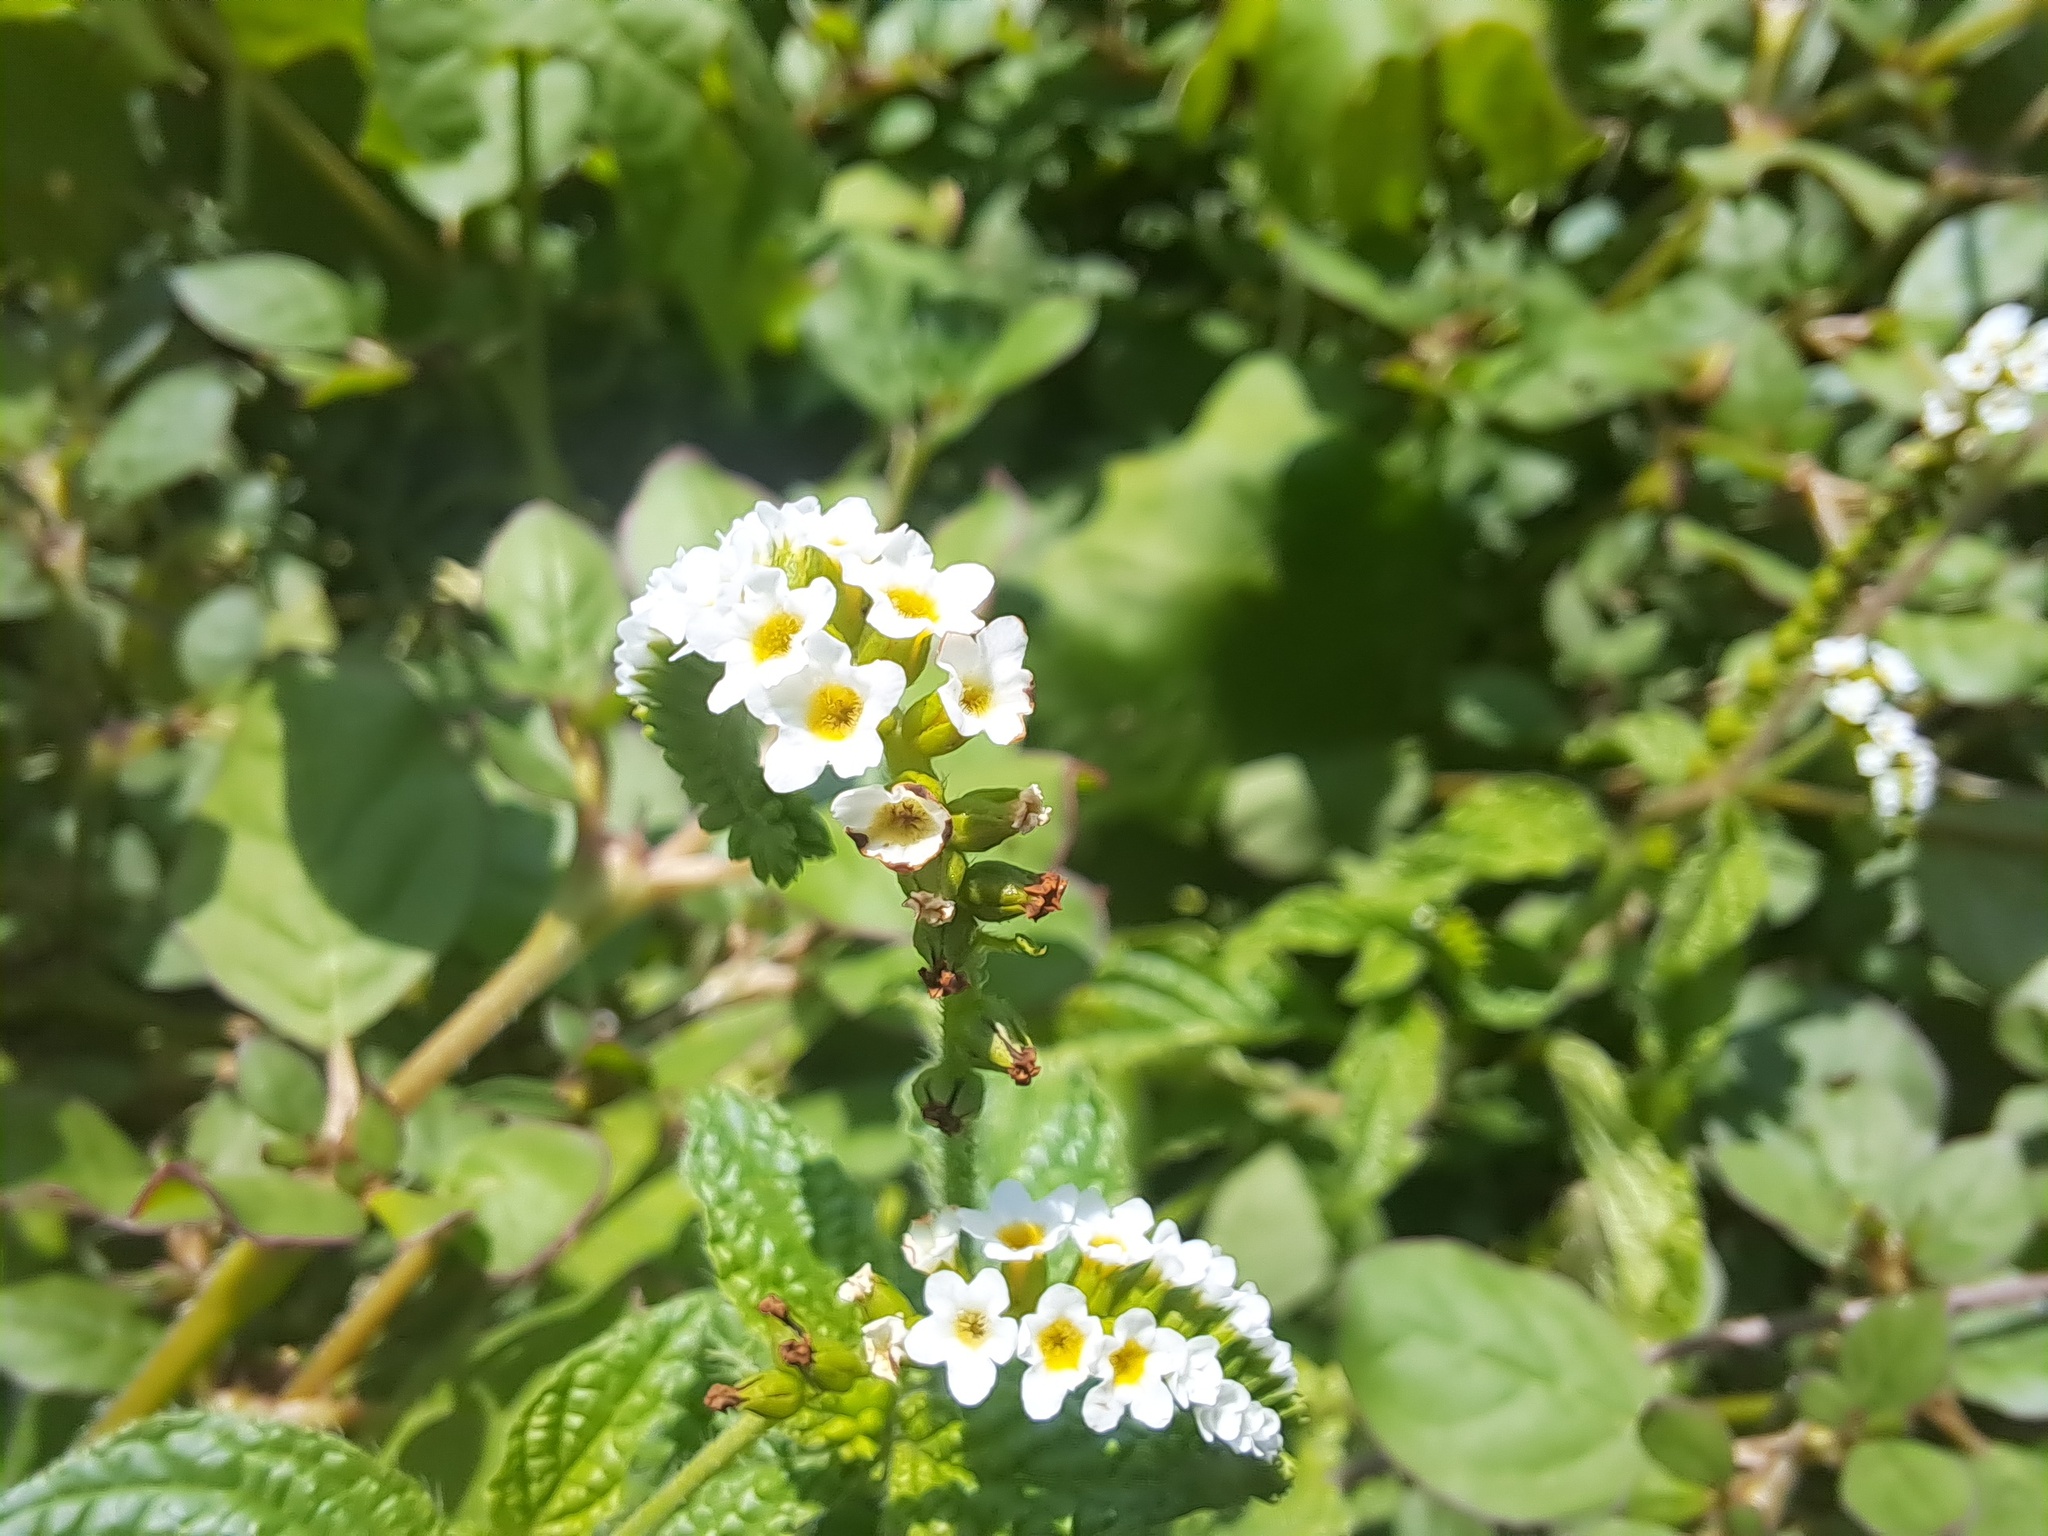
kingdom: Plantae
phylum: Tracheophyta
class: Magnoliopsida
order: Boraginales
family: Heliotropiaceae
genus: Heliotropium
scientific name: Heliotropium angiospermum
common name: Eye bright
